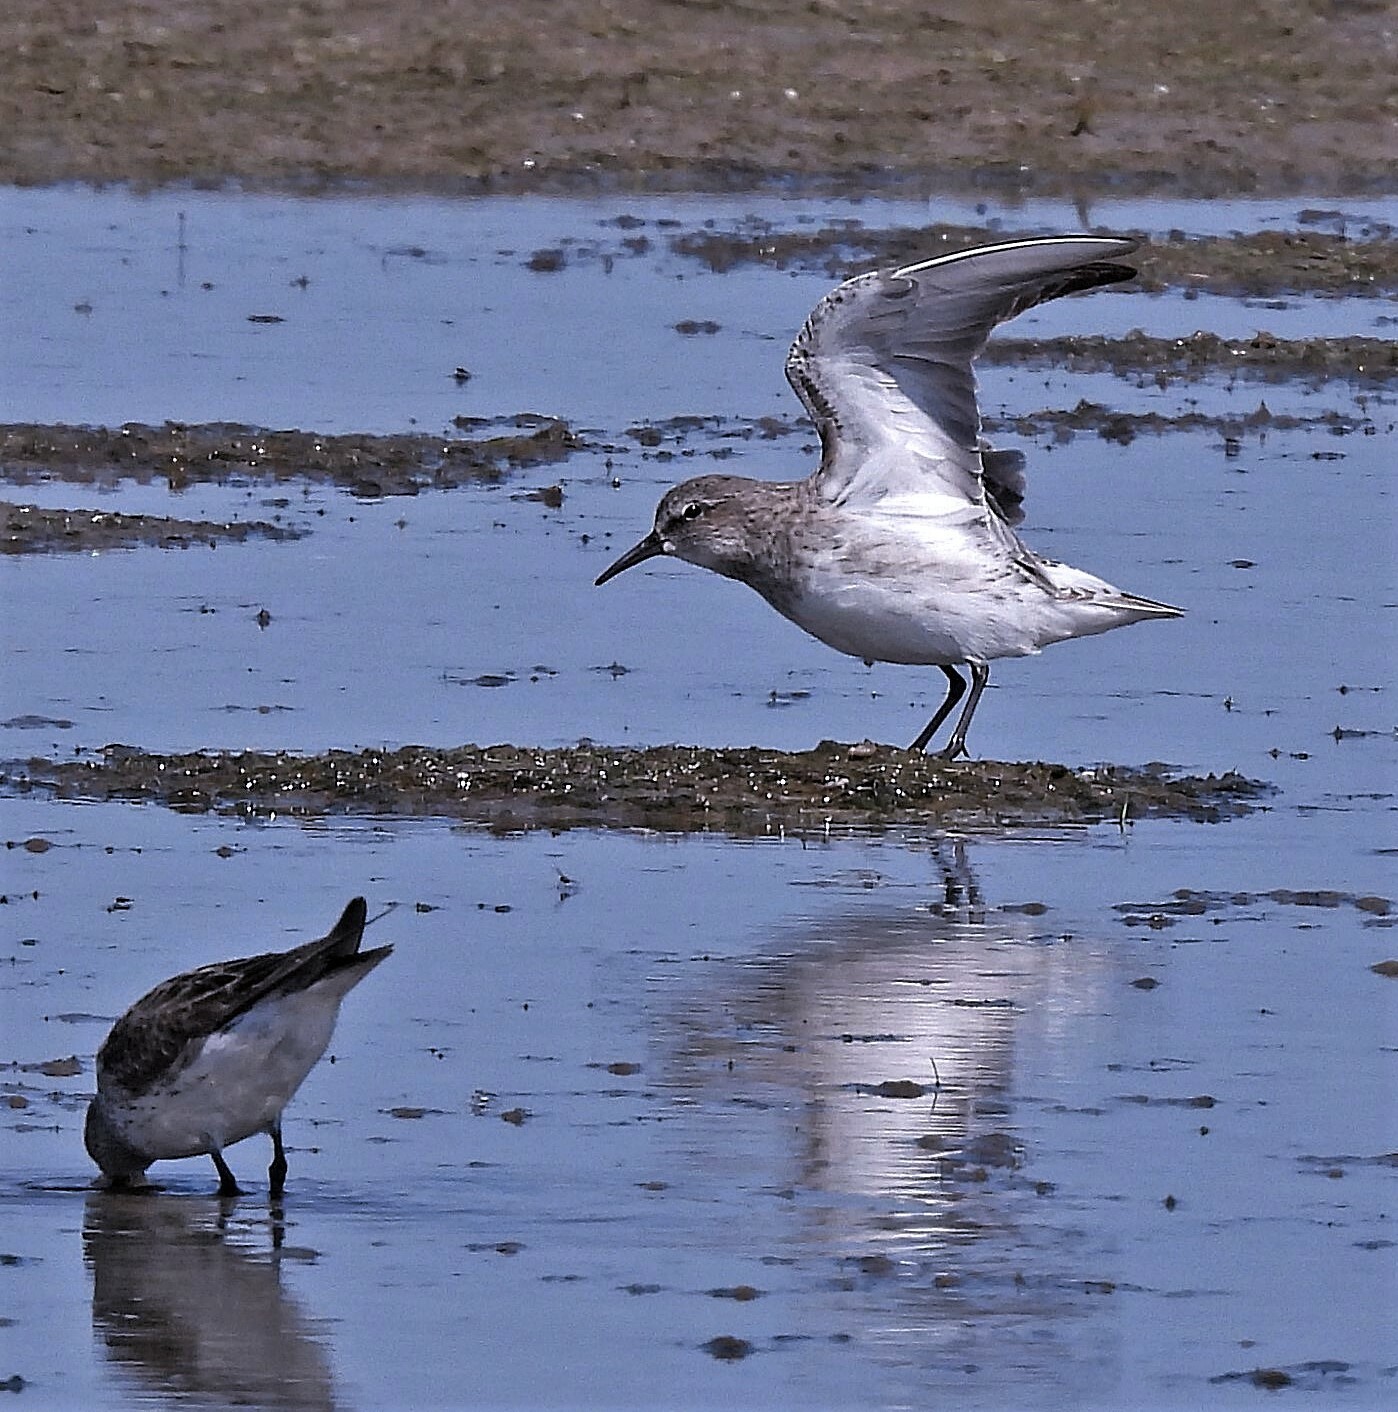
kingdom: Animalia
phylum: Chordata
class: Aves
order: Charadriiformes
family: Scolopacidae
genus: Calidris
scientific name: Calidris fuscicollis
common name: White-rumped sandpiper
